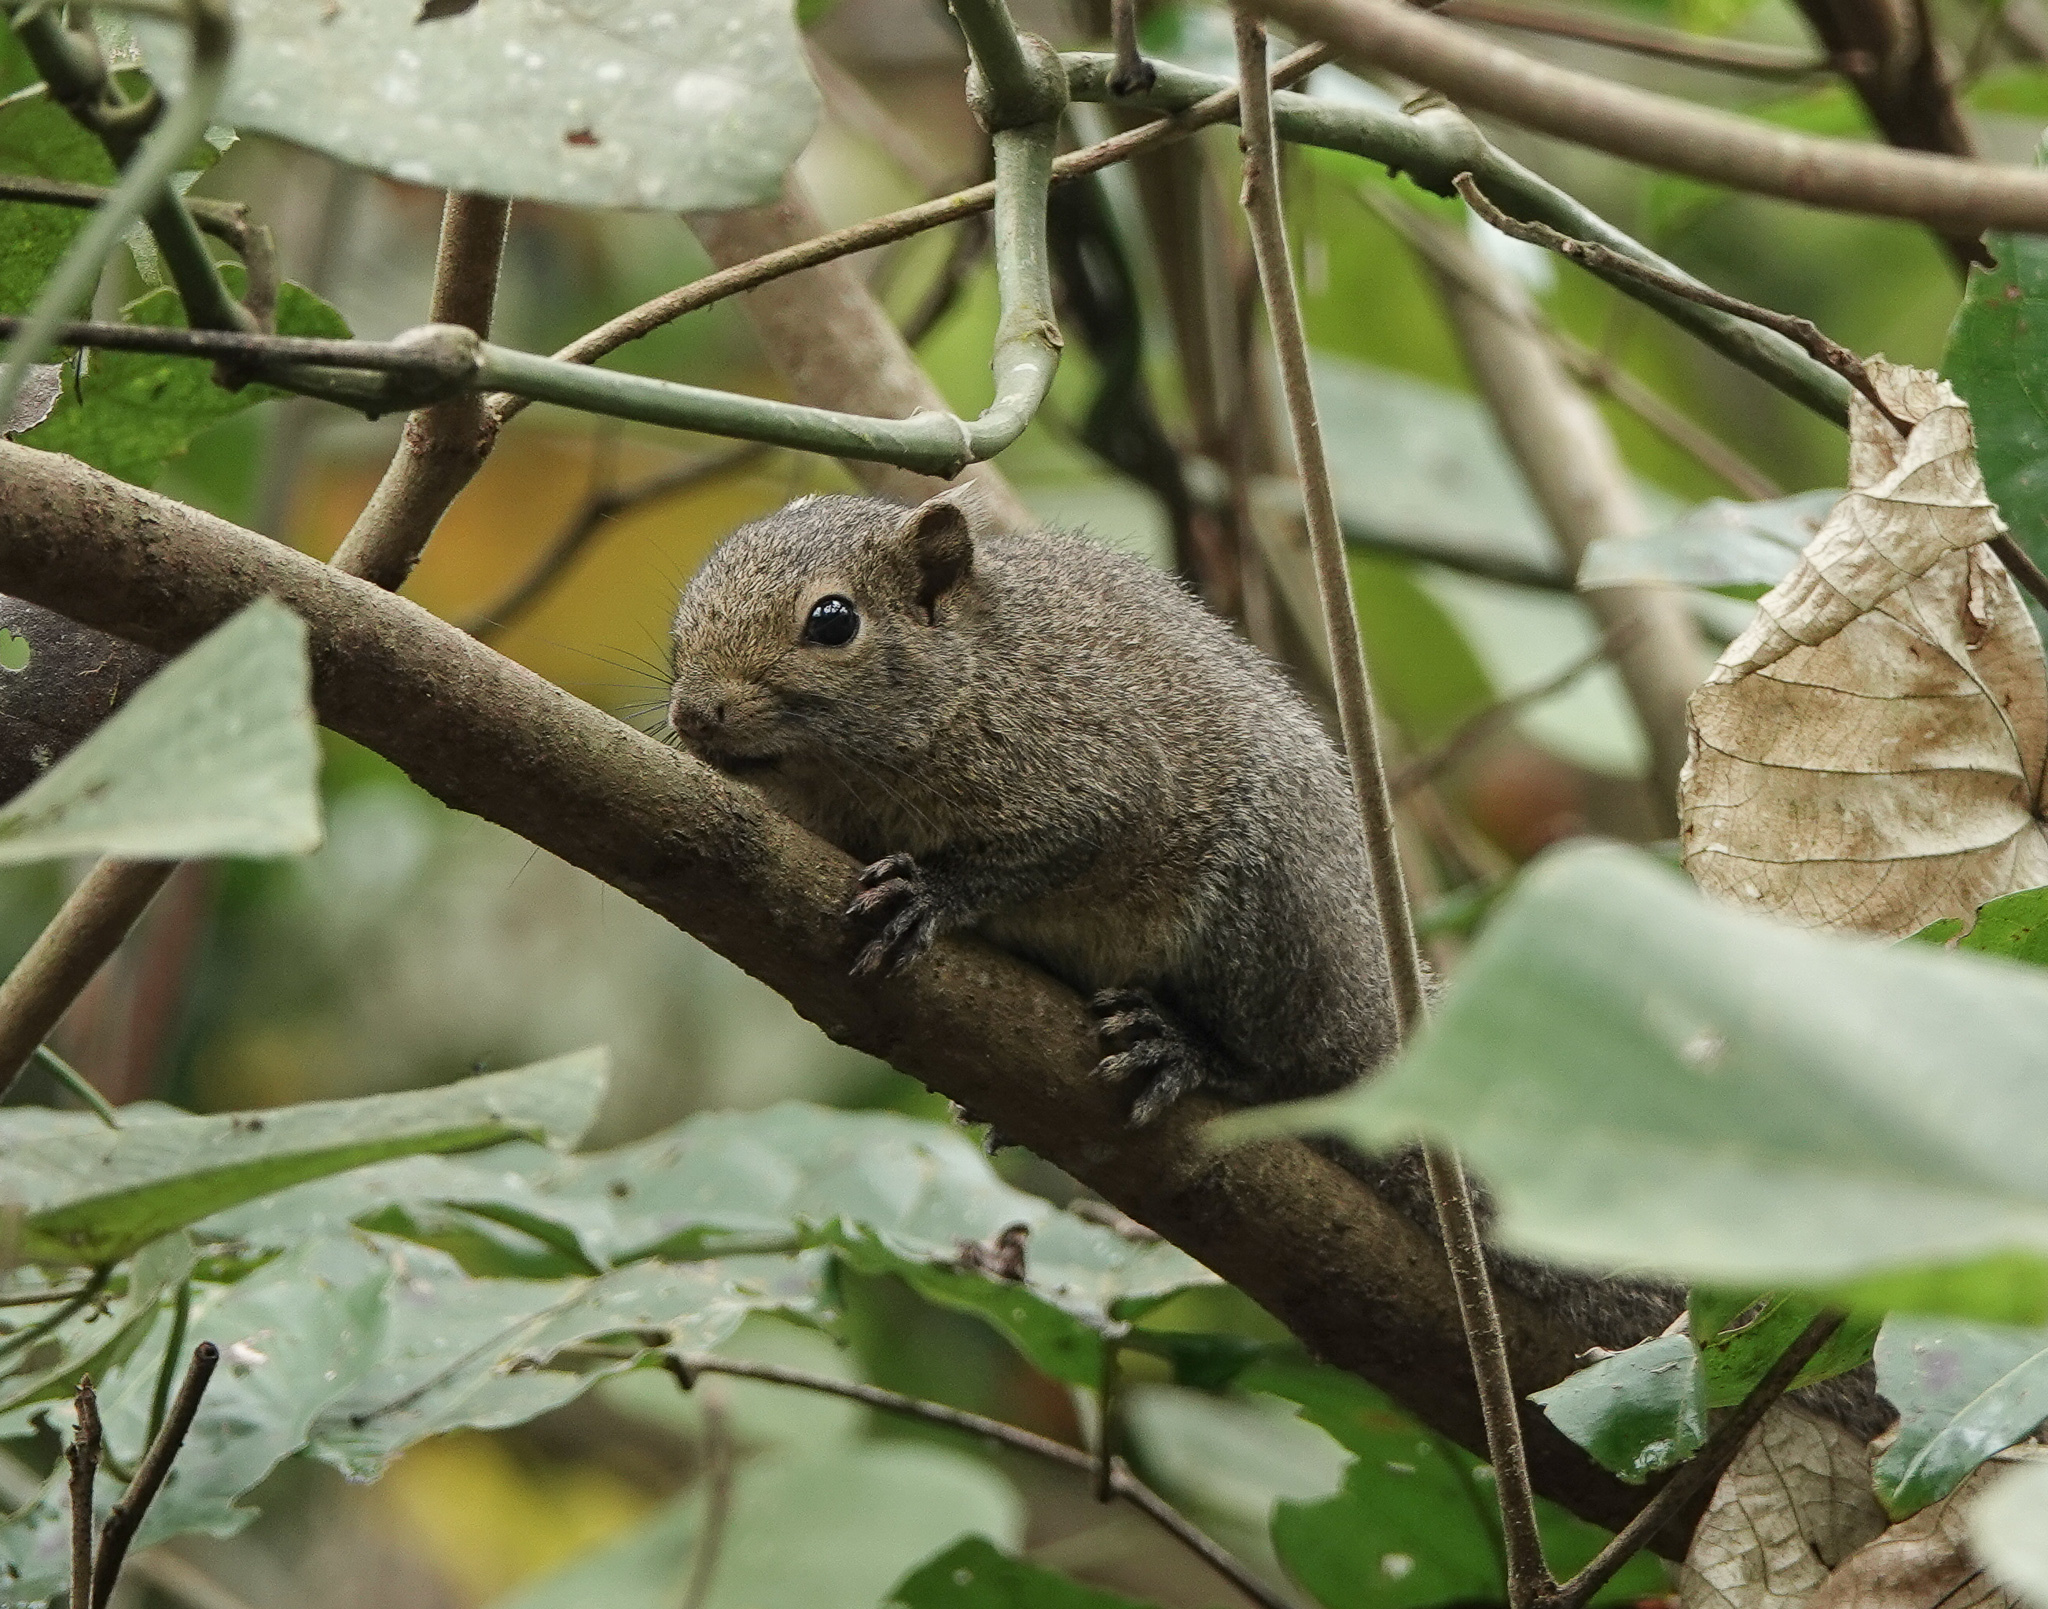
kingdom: Animalia
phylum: Chordata
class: Mammalia
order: Rodentia
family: Sciuridae
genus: Callosciurus
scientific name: Callosciurus pygerythrus
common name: Irrawaddy squirrel
